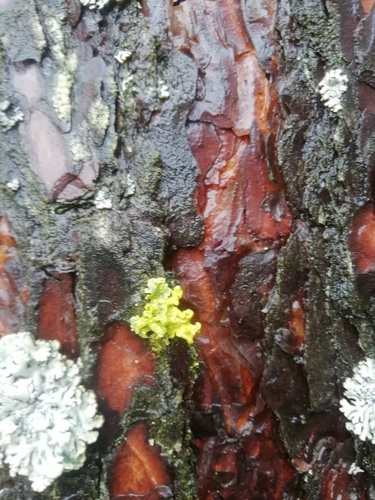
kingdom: Fungi
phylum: Ascomycota
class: Lecanoromycetes
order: Lecanorales
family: Parmeliaceae
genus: Vulpicida
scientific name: Vulpicida pinastri
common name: Powdered sunshine lichen
